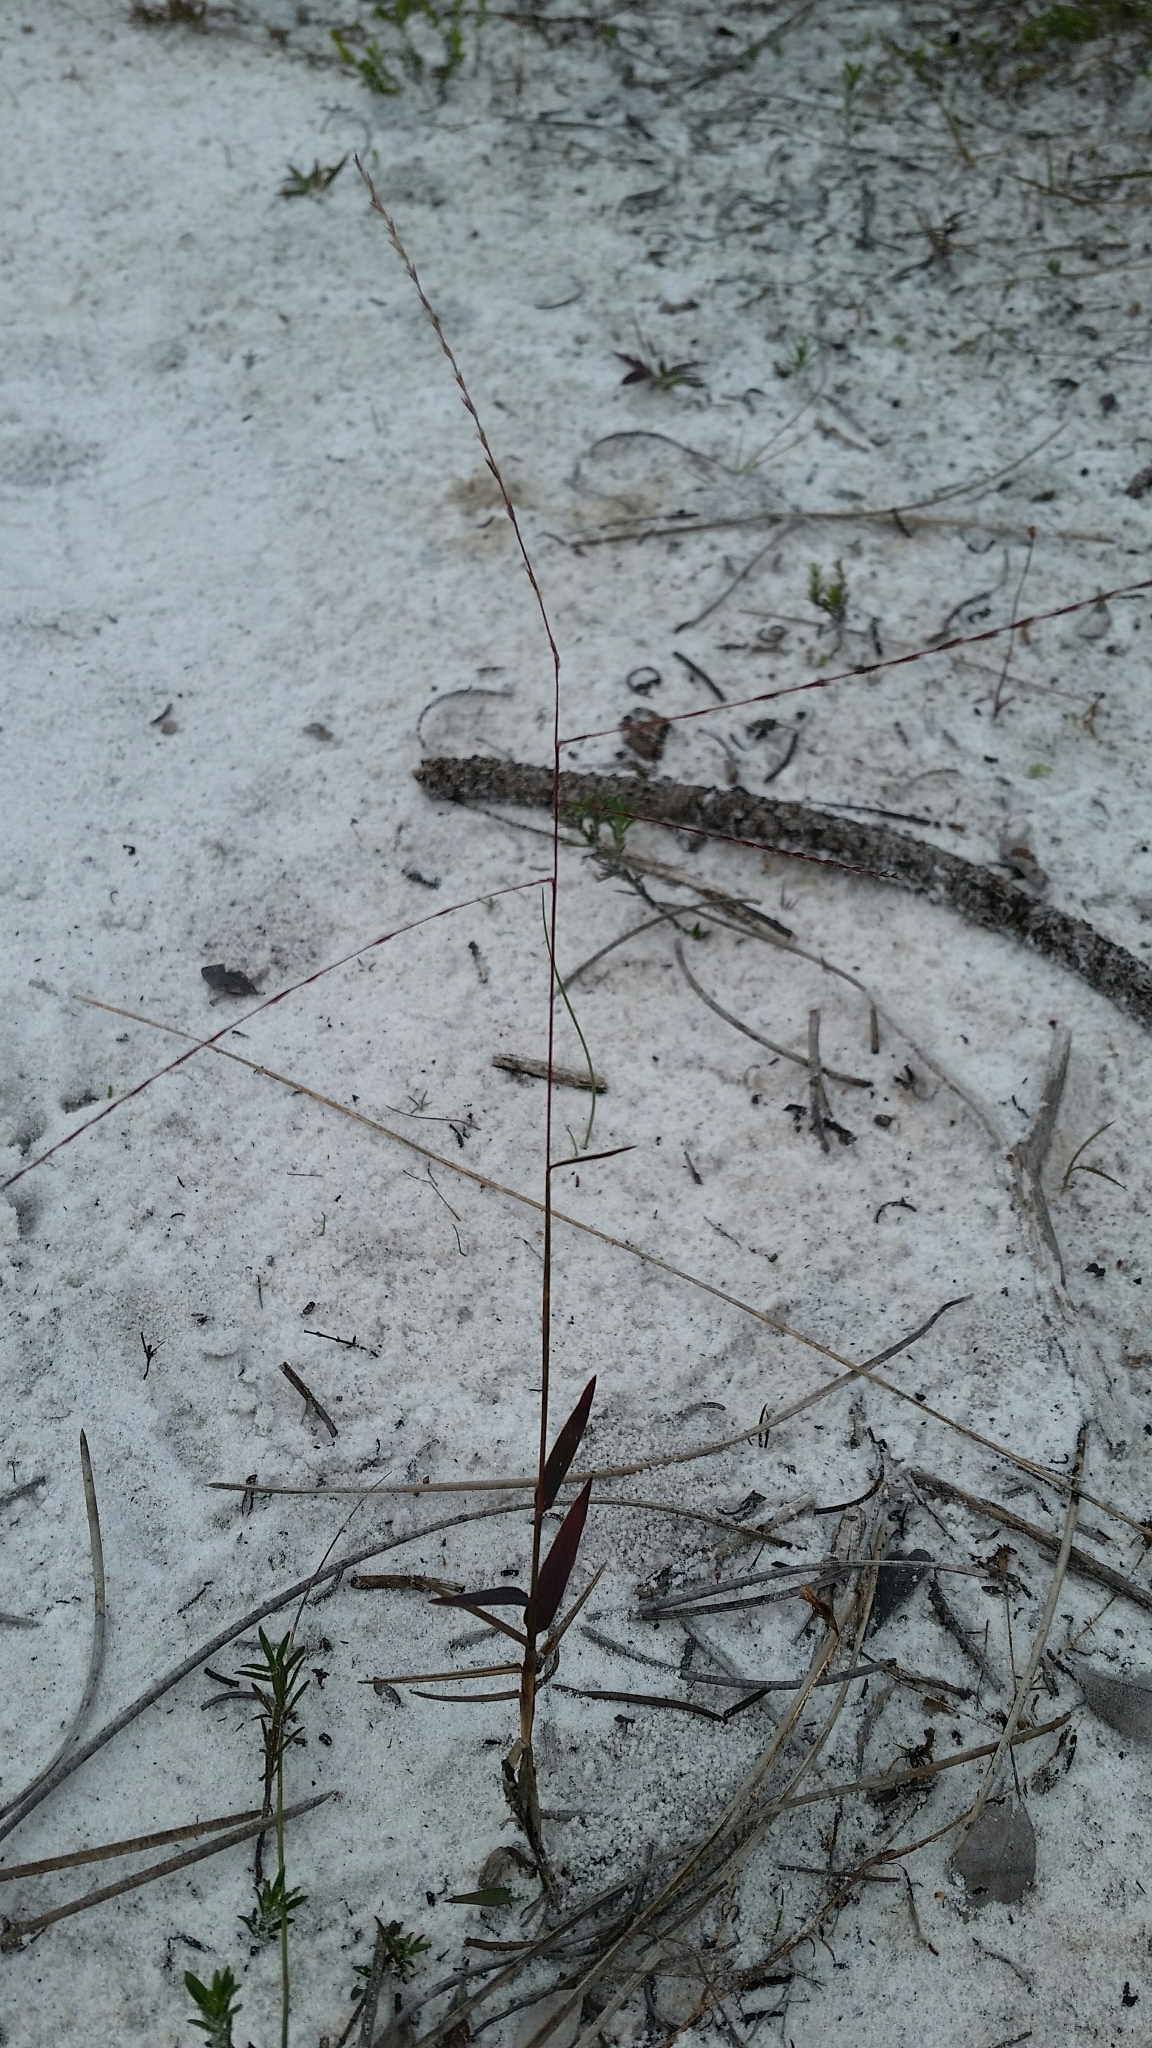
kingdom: Plantae
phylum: Tracheophyta
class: Liliopsida
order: Poales
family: Poaceae
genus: Gymnopogon
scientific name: Gymnopogon chapmanianus
